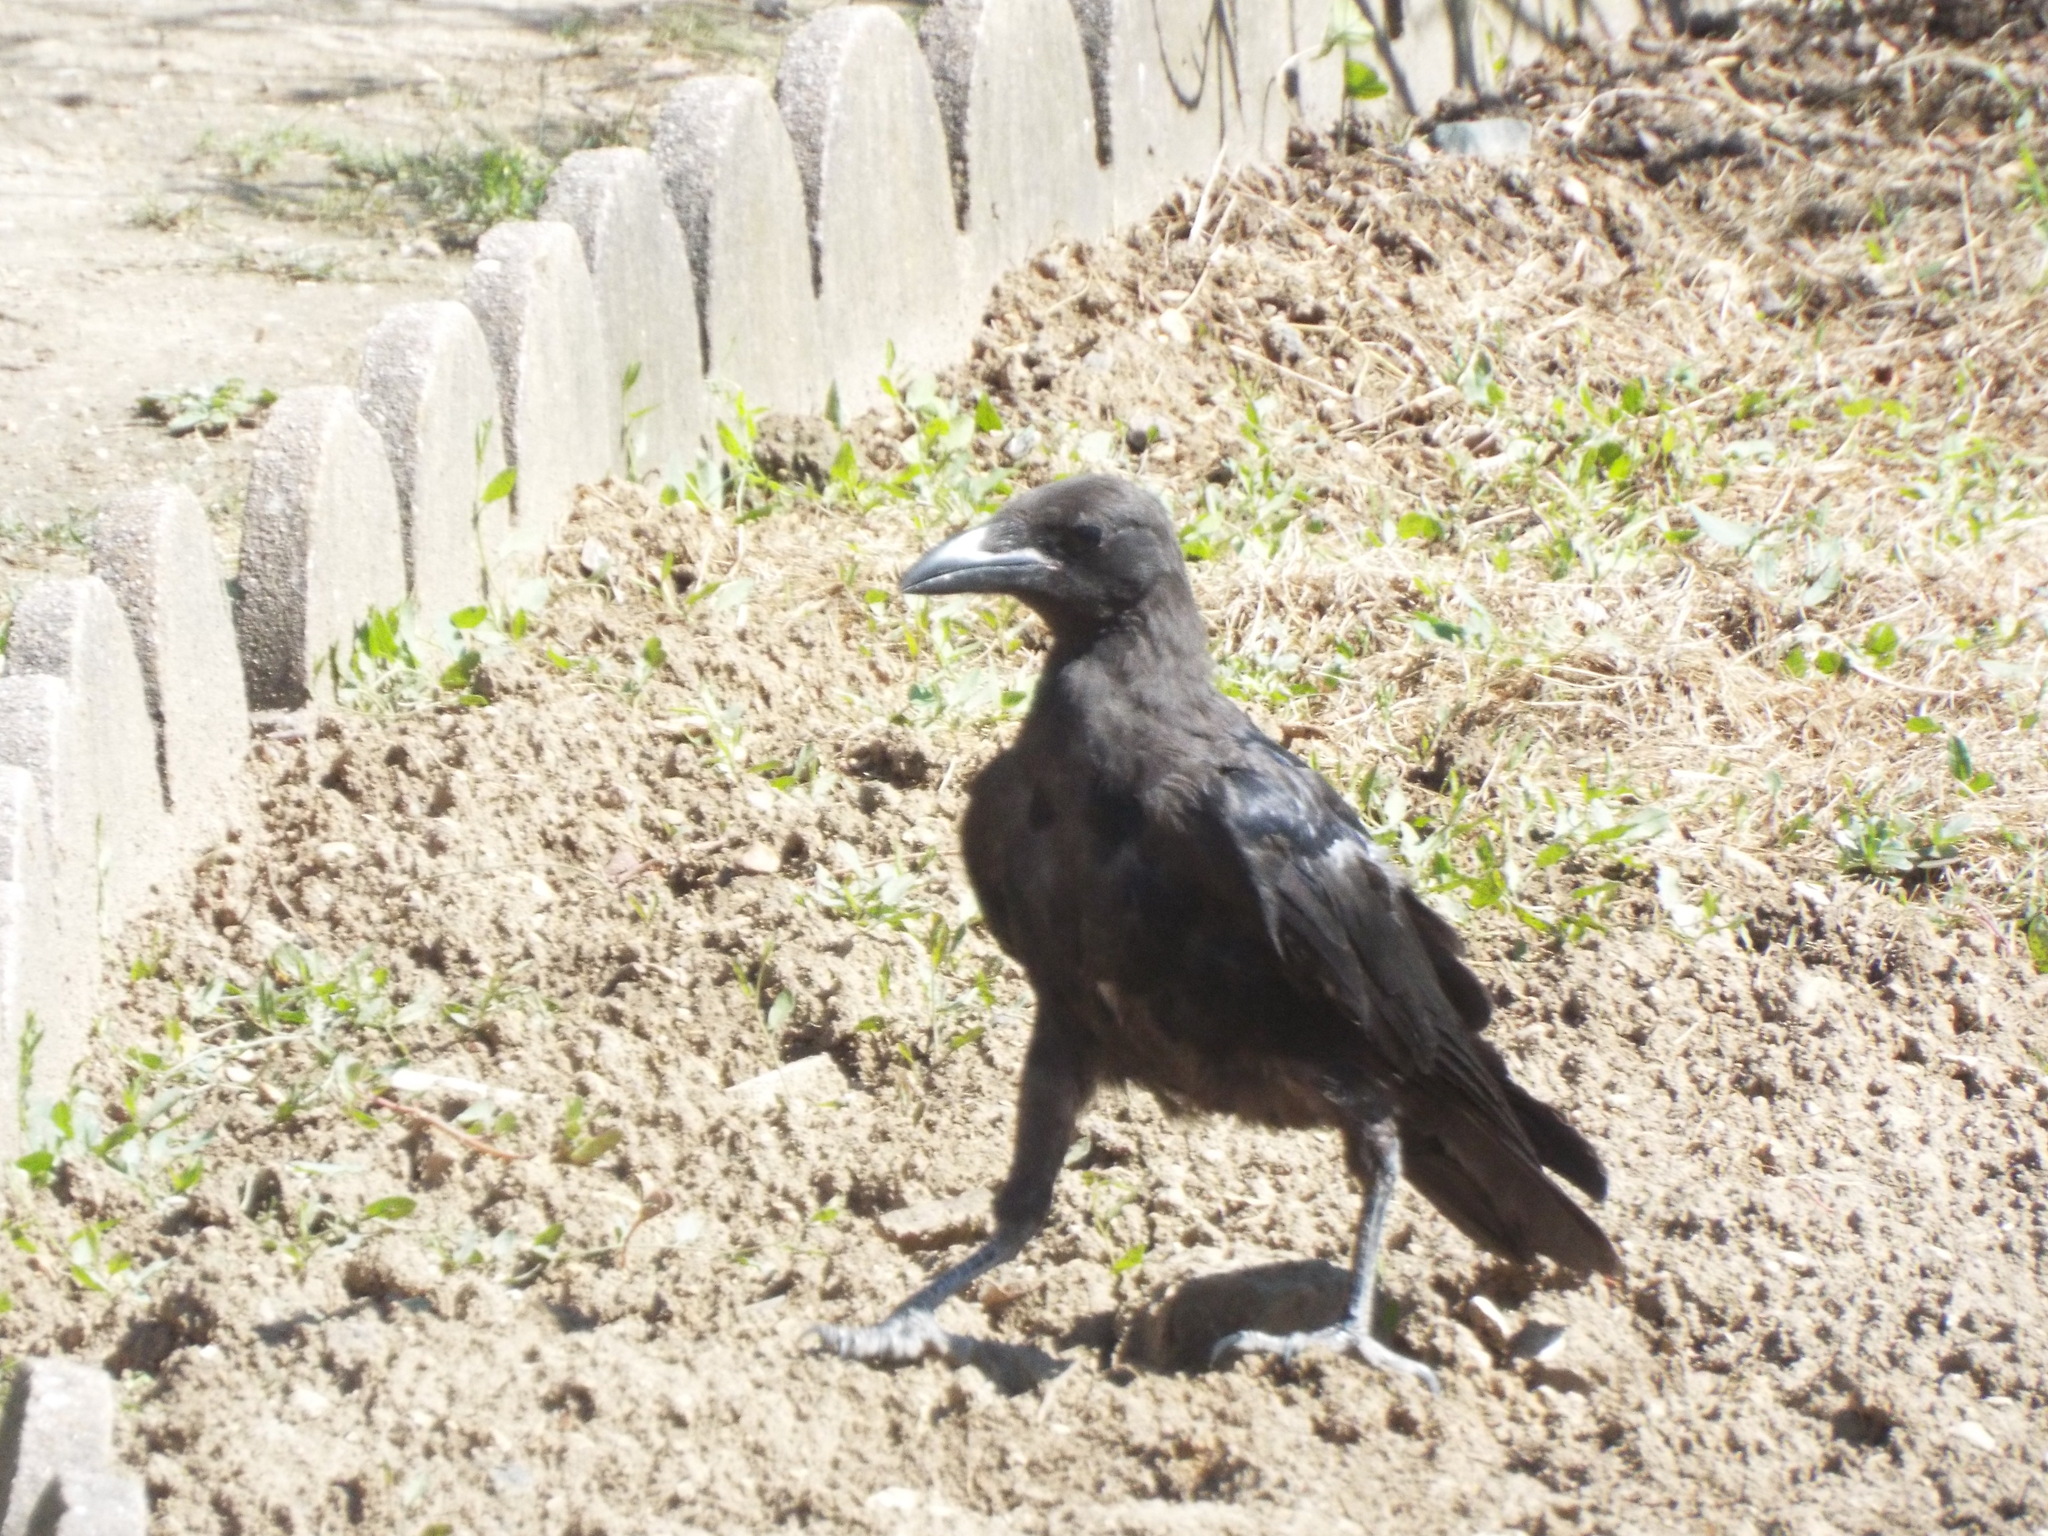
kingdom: Animalia
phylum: Chordata
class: Aves
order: Passeriformes
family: Corvidae
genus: Corvus
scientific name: Corvus corone
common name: Carrion crow
